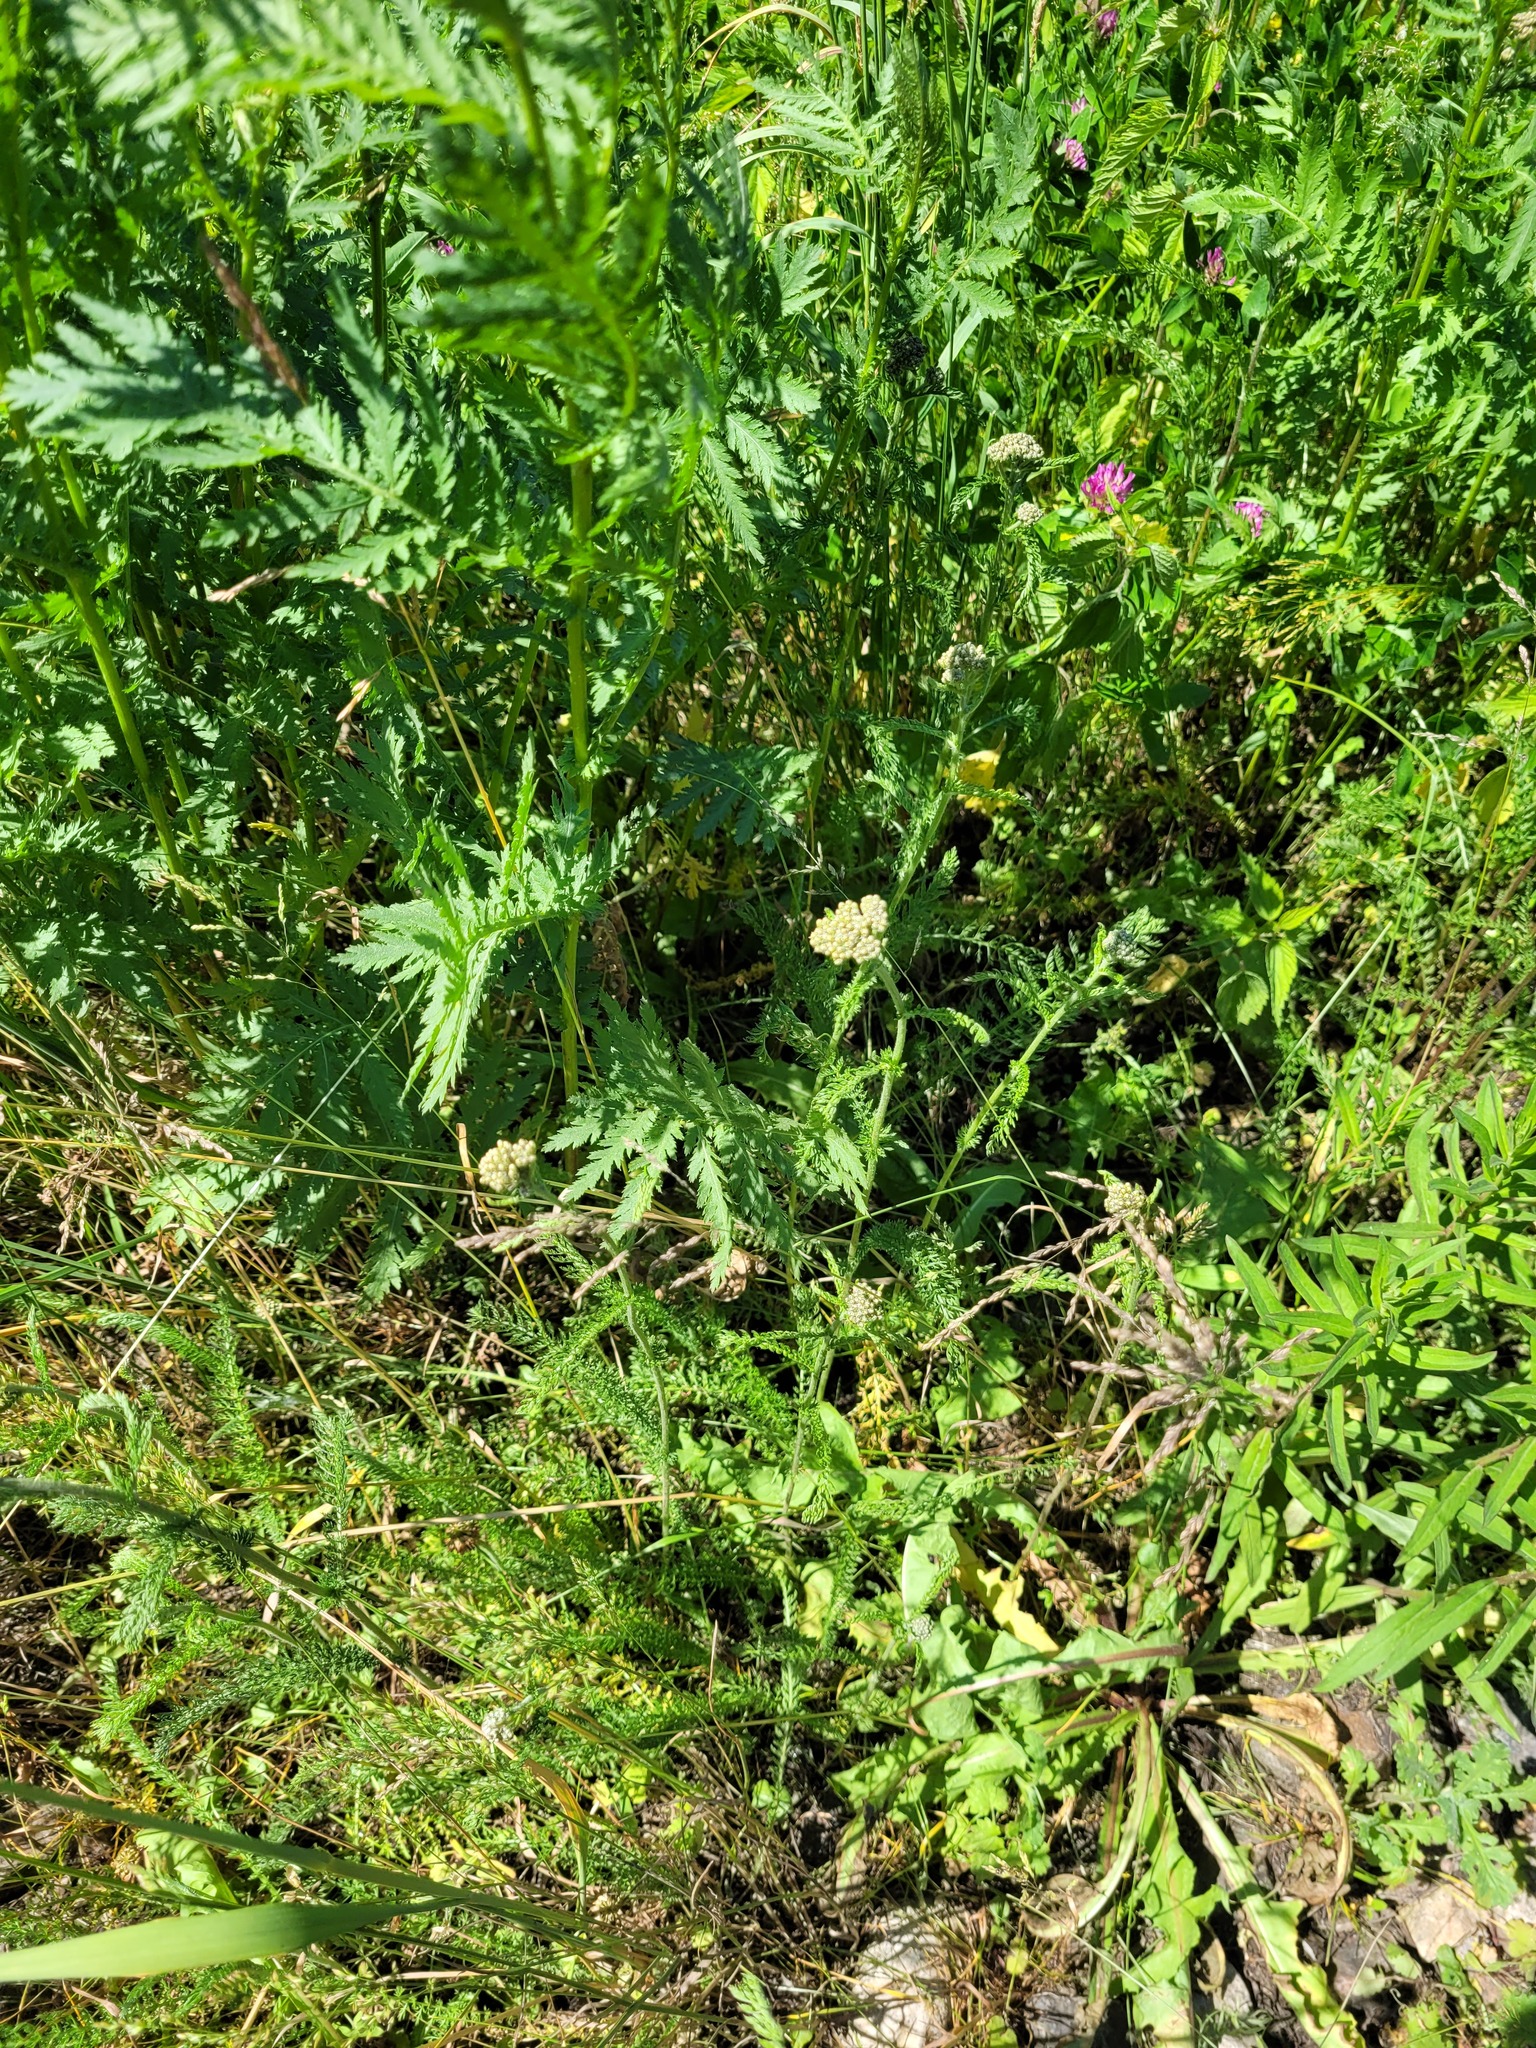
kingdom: Plantae
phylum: Tracheophyta
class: Magnoliopsida
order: Asterales
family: Asteraceae
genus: Achillea
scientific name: Achillea millefolium
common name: Yarrow
